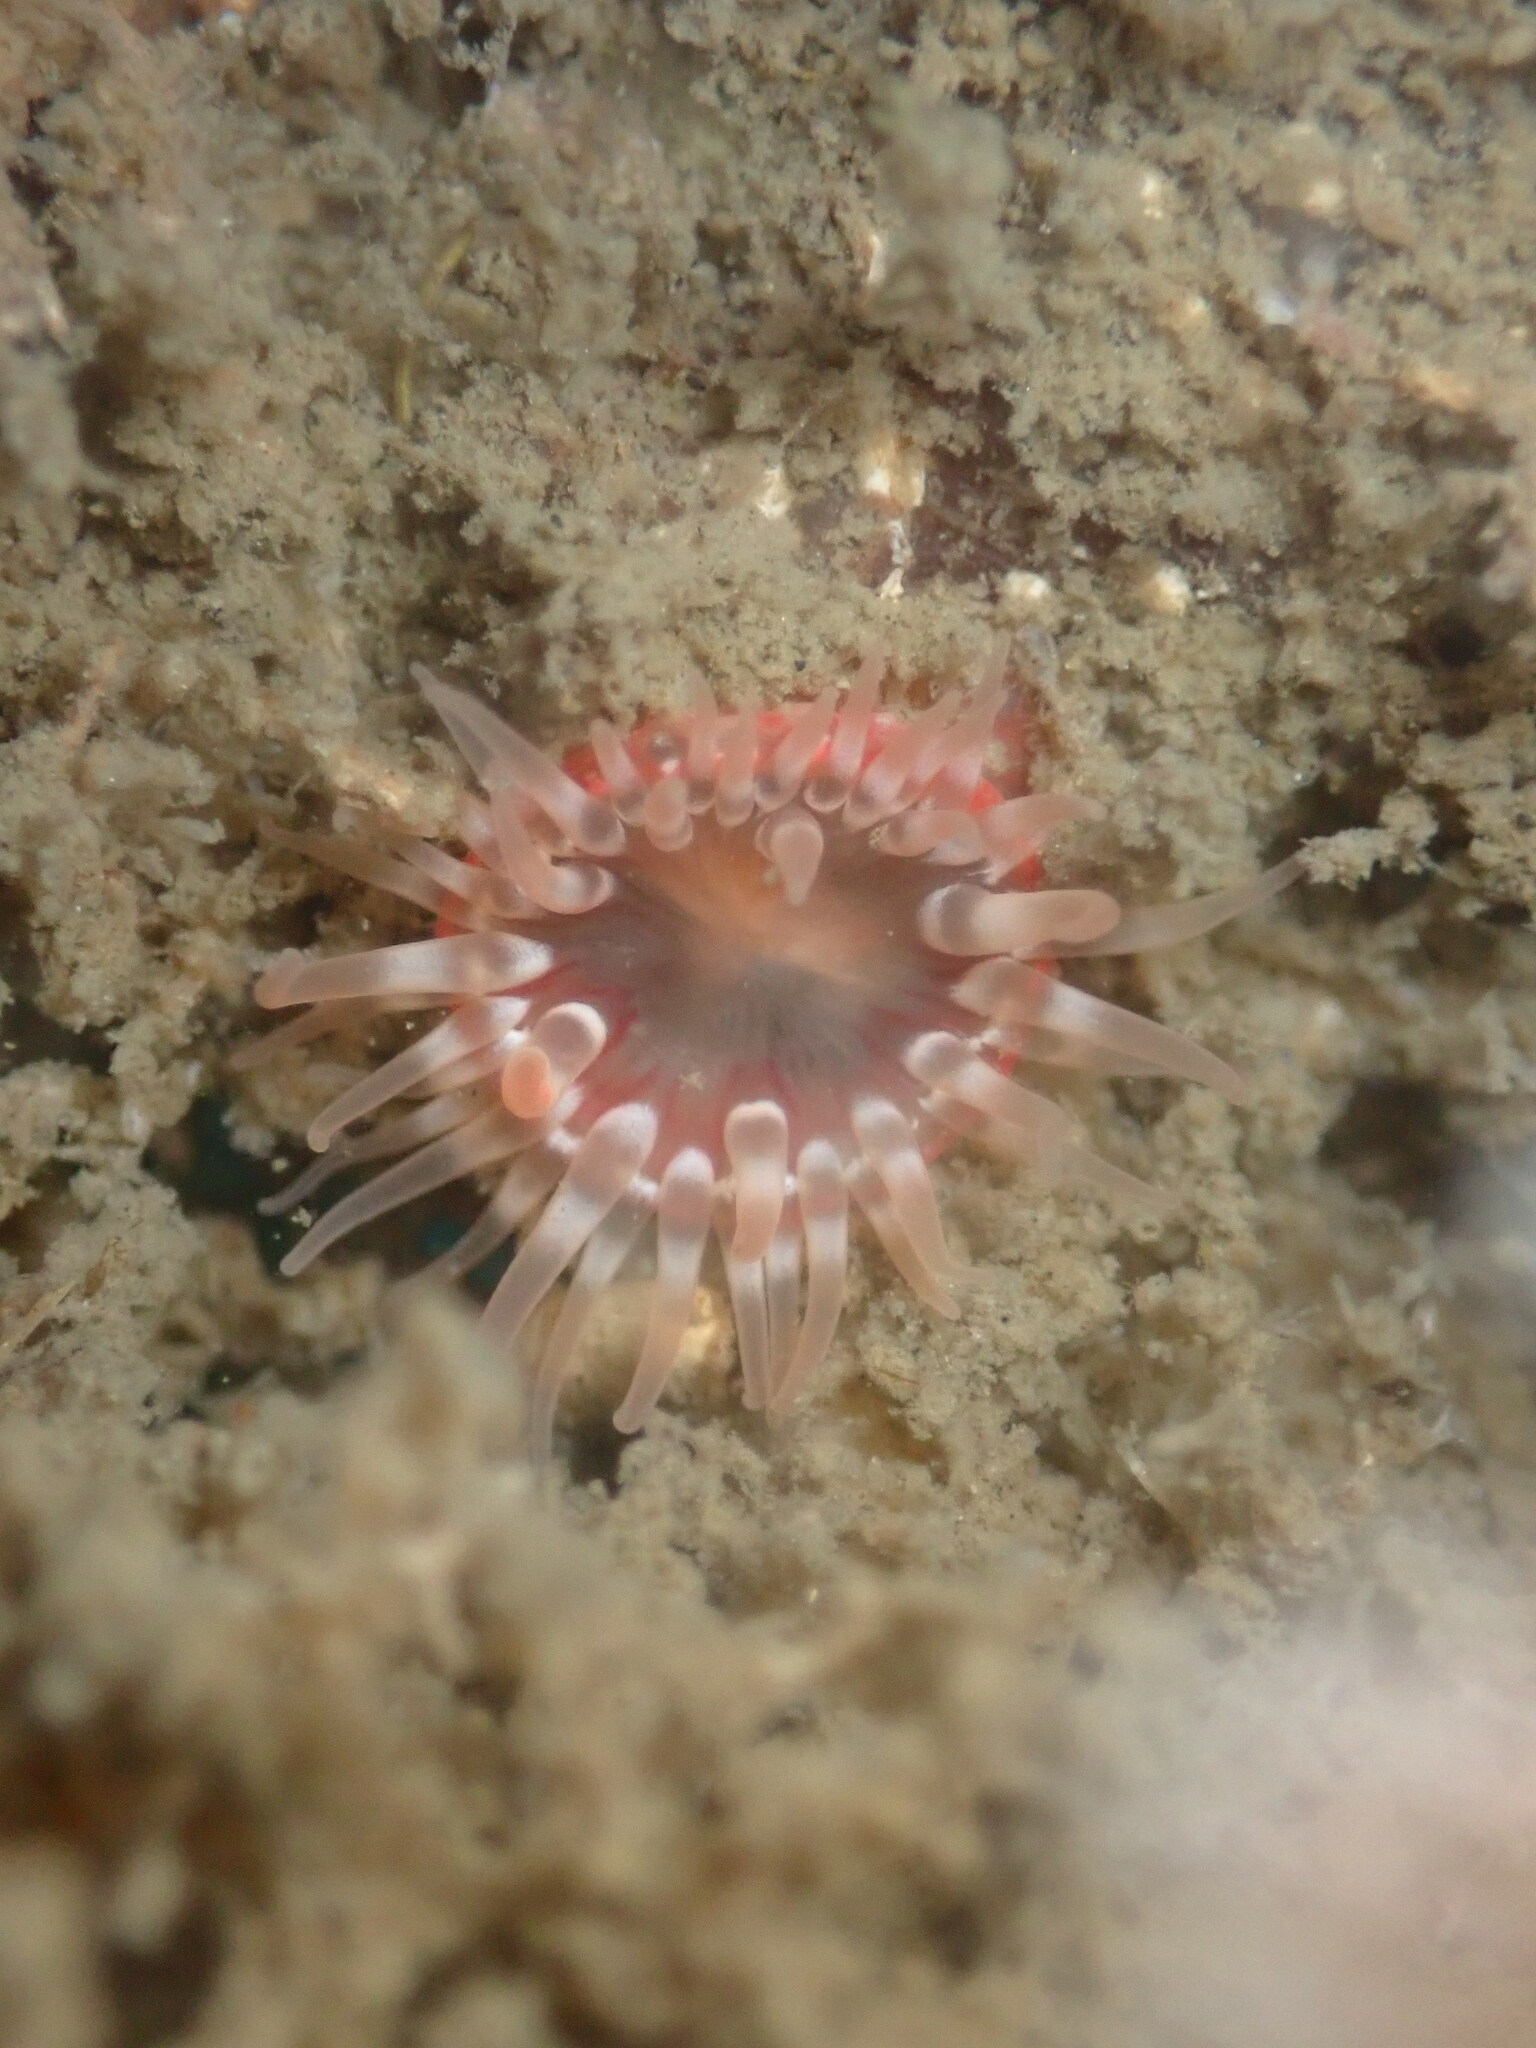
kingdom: Animalia
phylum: Cnidaria
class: Anthozoa
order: Actiniaria
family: Actiniidae
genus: Urticina
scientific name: Urticina grebelnyi
